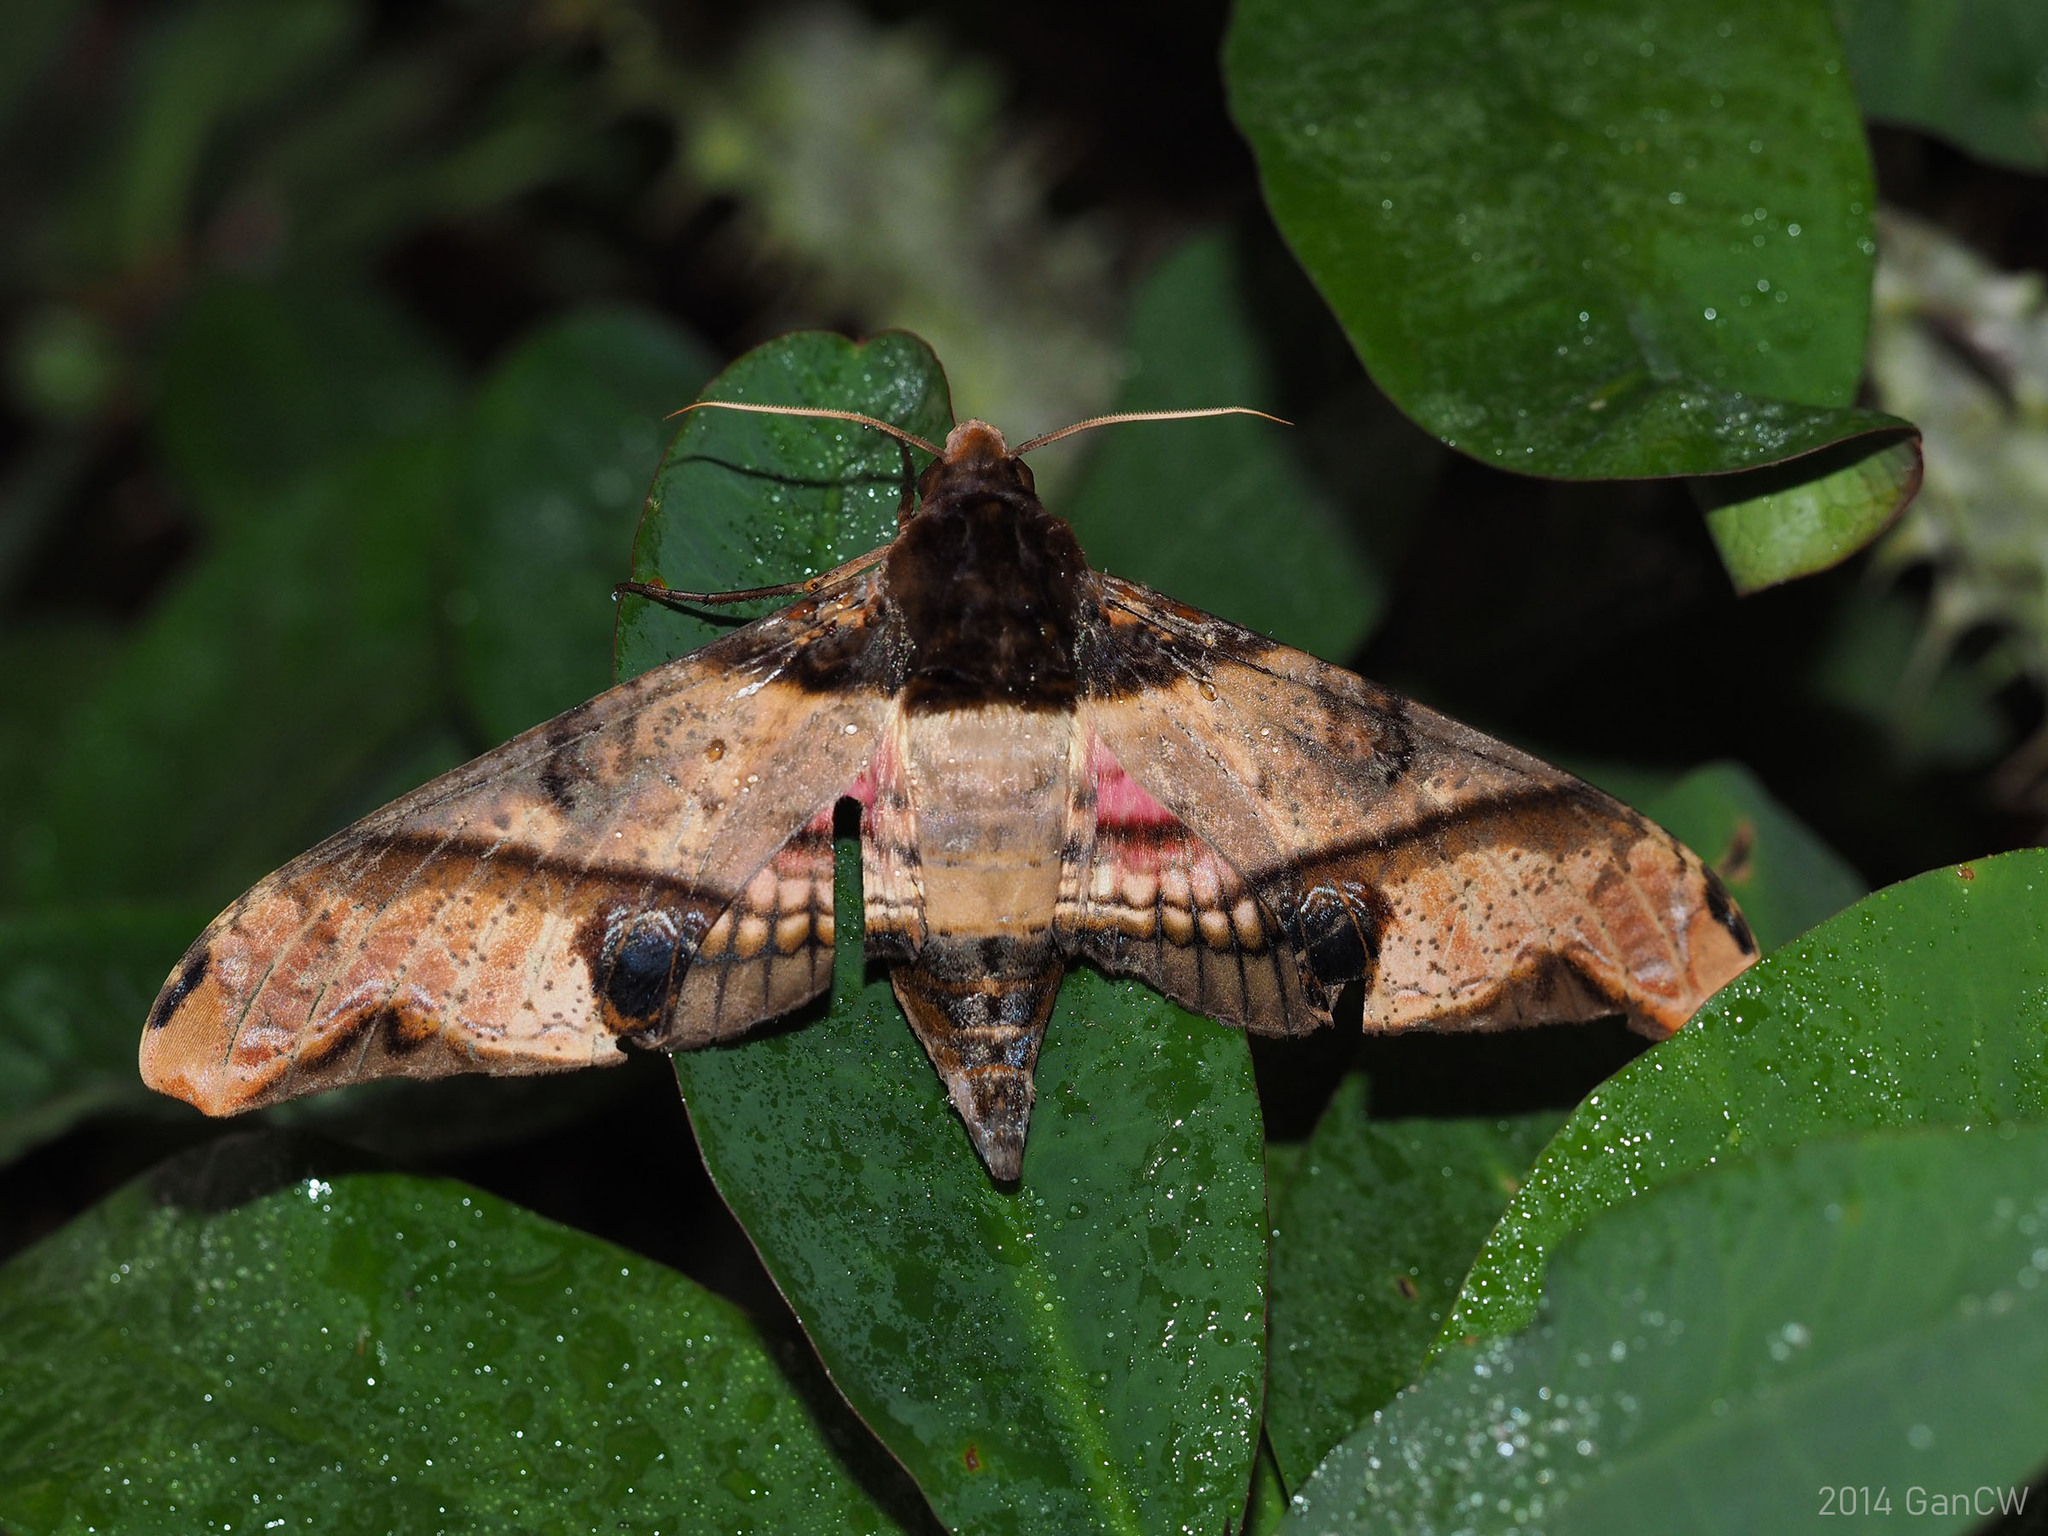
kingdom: Animalia
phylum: Arthropoda
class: Insecta
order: Lepidoptera
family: Sphingidae
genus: Amplypterus
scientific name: Amplypterus panopus
